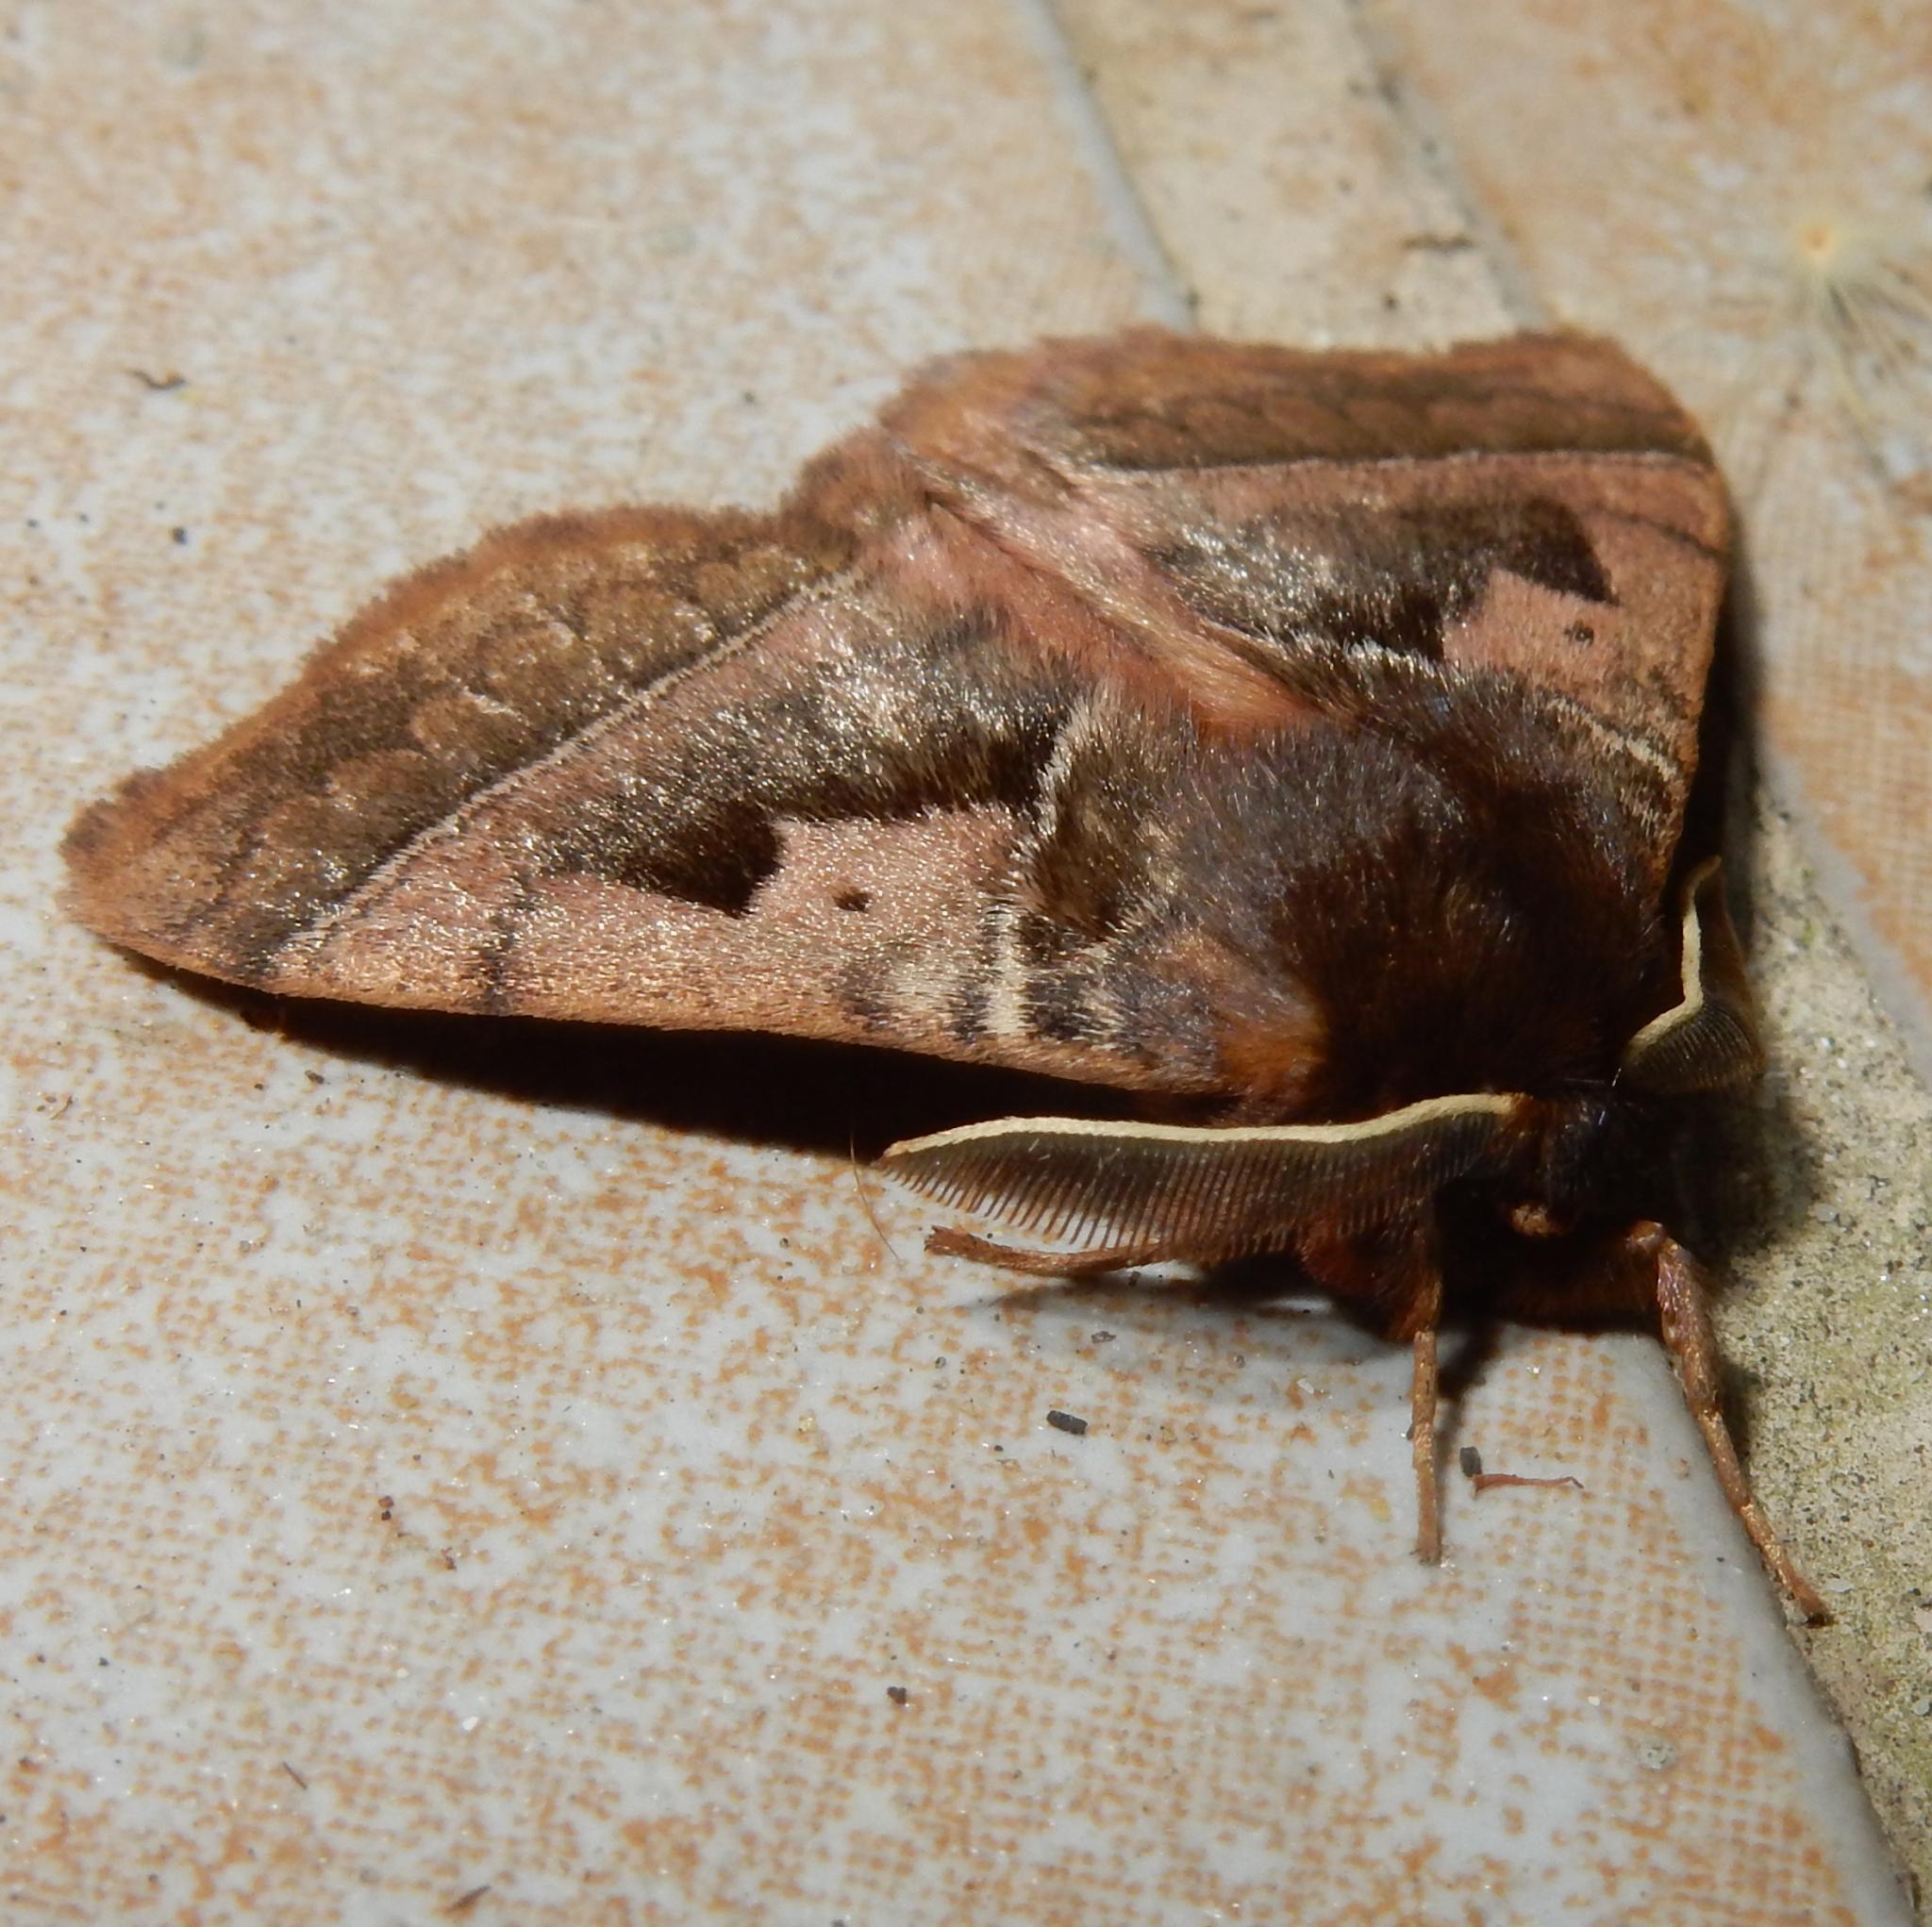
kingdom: Animalia
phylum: Arthropoda
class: Insecta
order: Lepidoptera
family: Eupterotidae
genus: Poloma
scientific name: Poloma angulata
